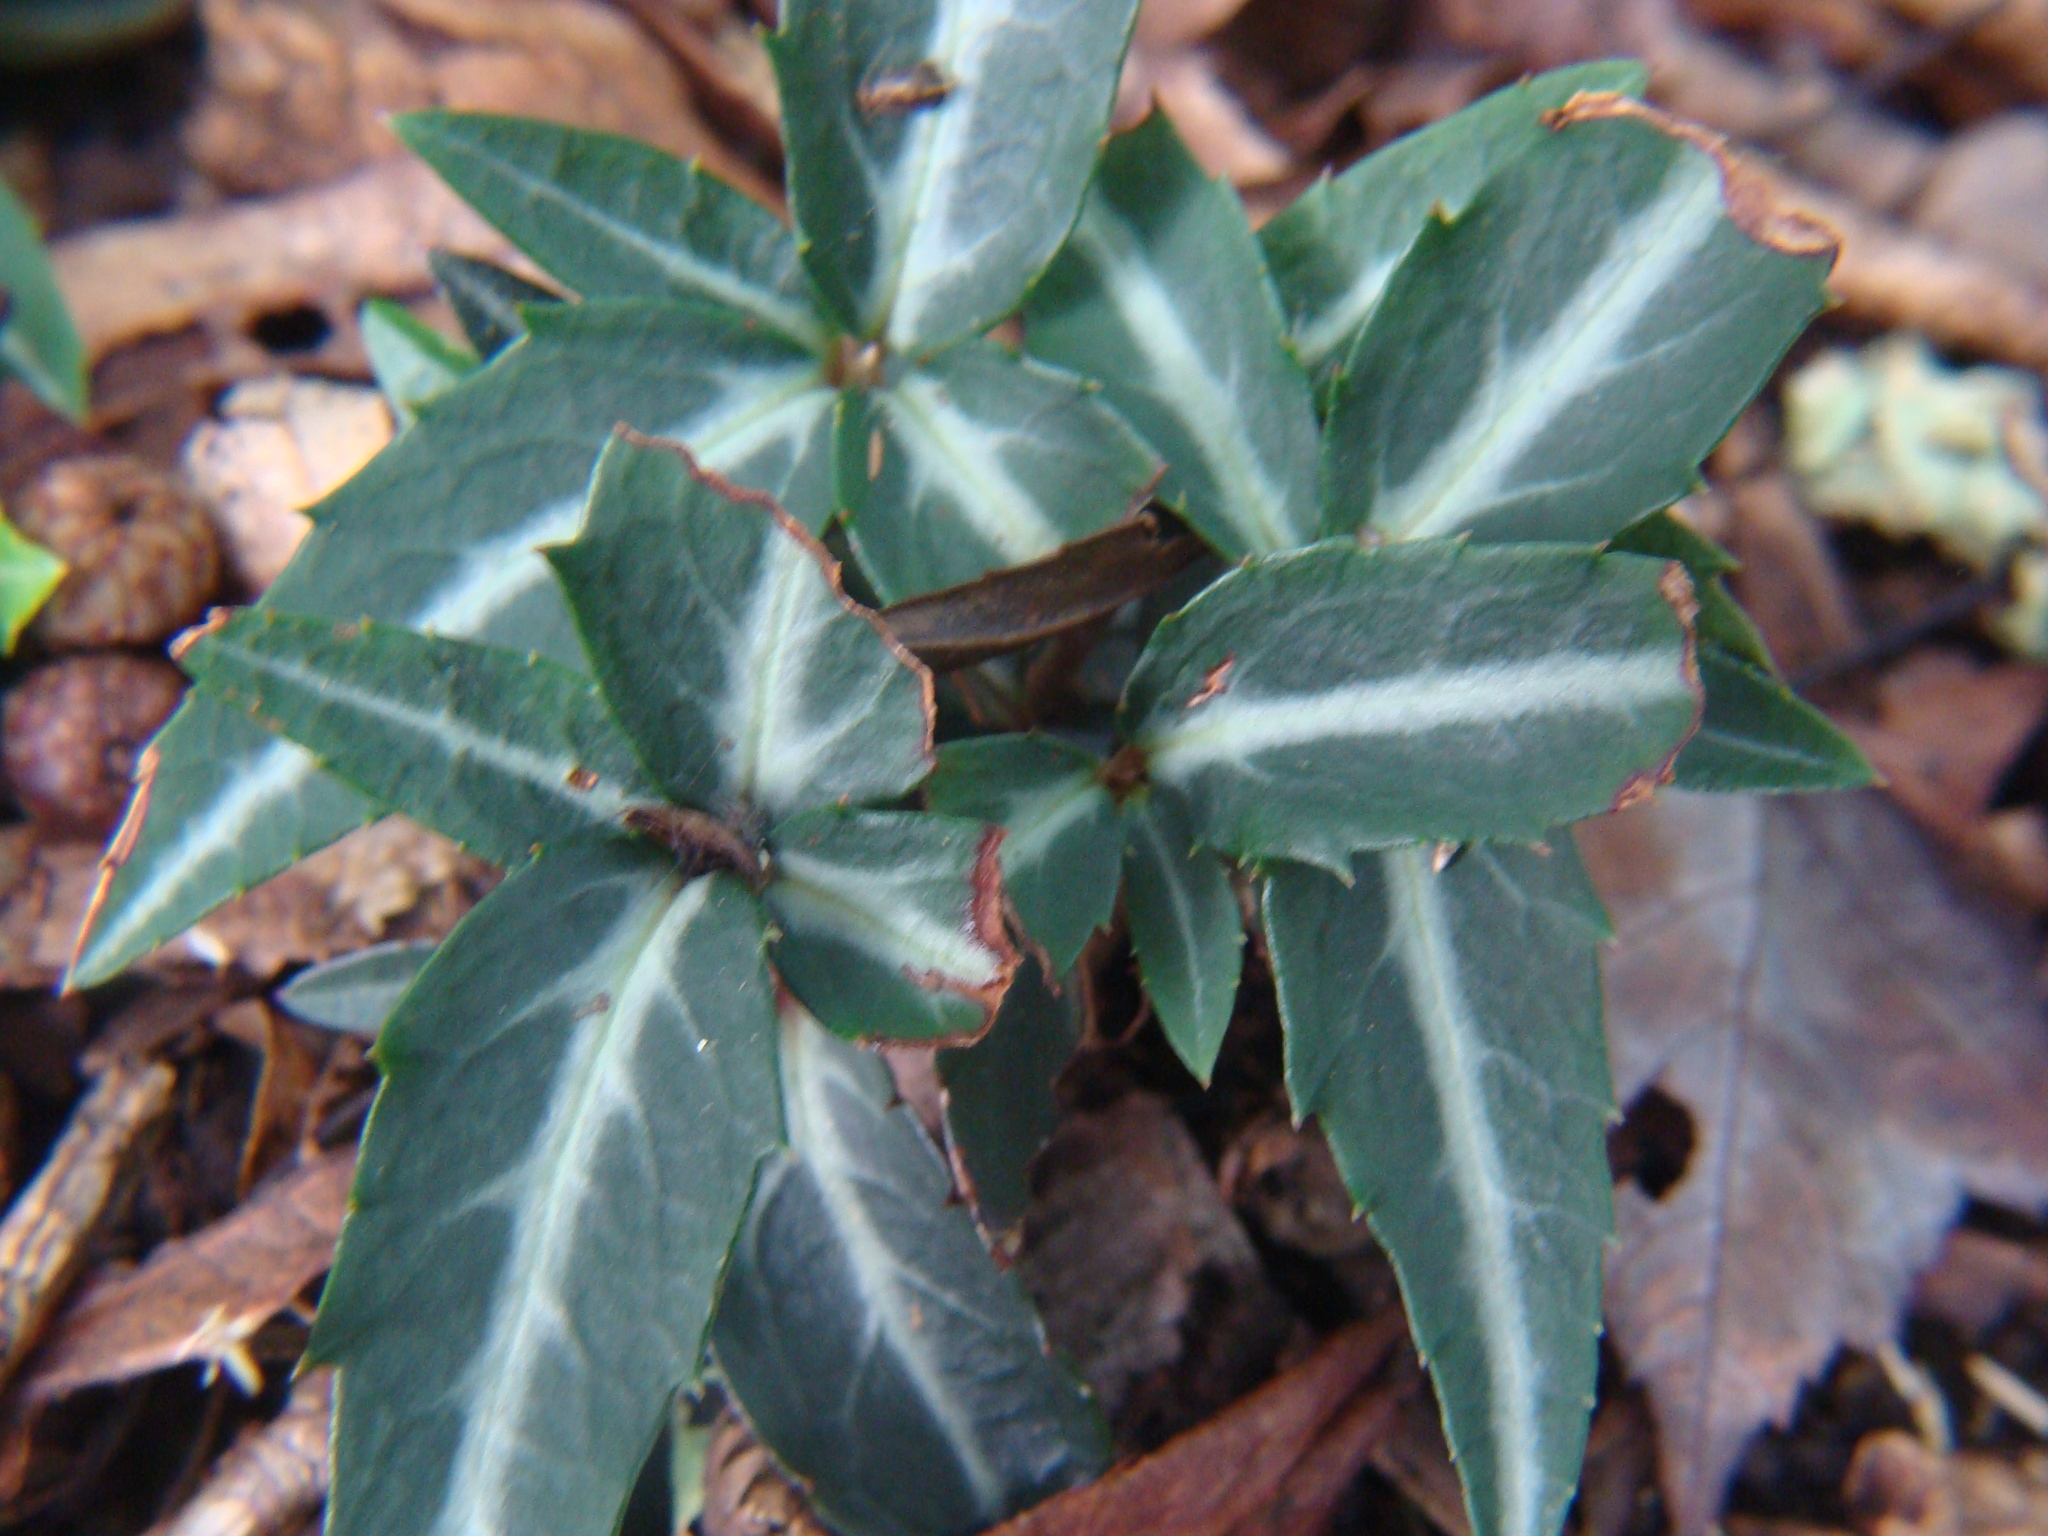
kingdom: Plantae
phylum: Tracheophyta
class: Magnoliopsida
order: Ericales
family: Ericaceae
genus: Chimaphila
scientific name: Chimaphila maculata
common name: Spotted pipsissewa
